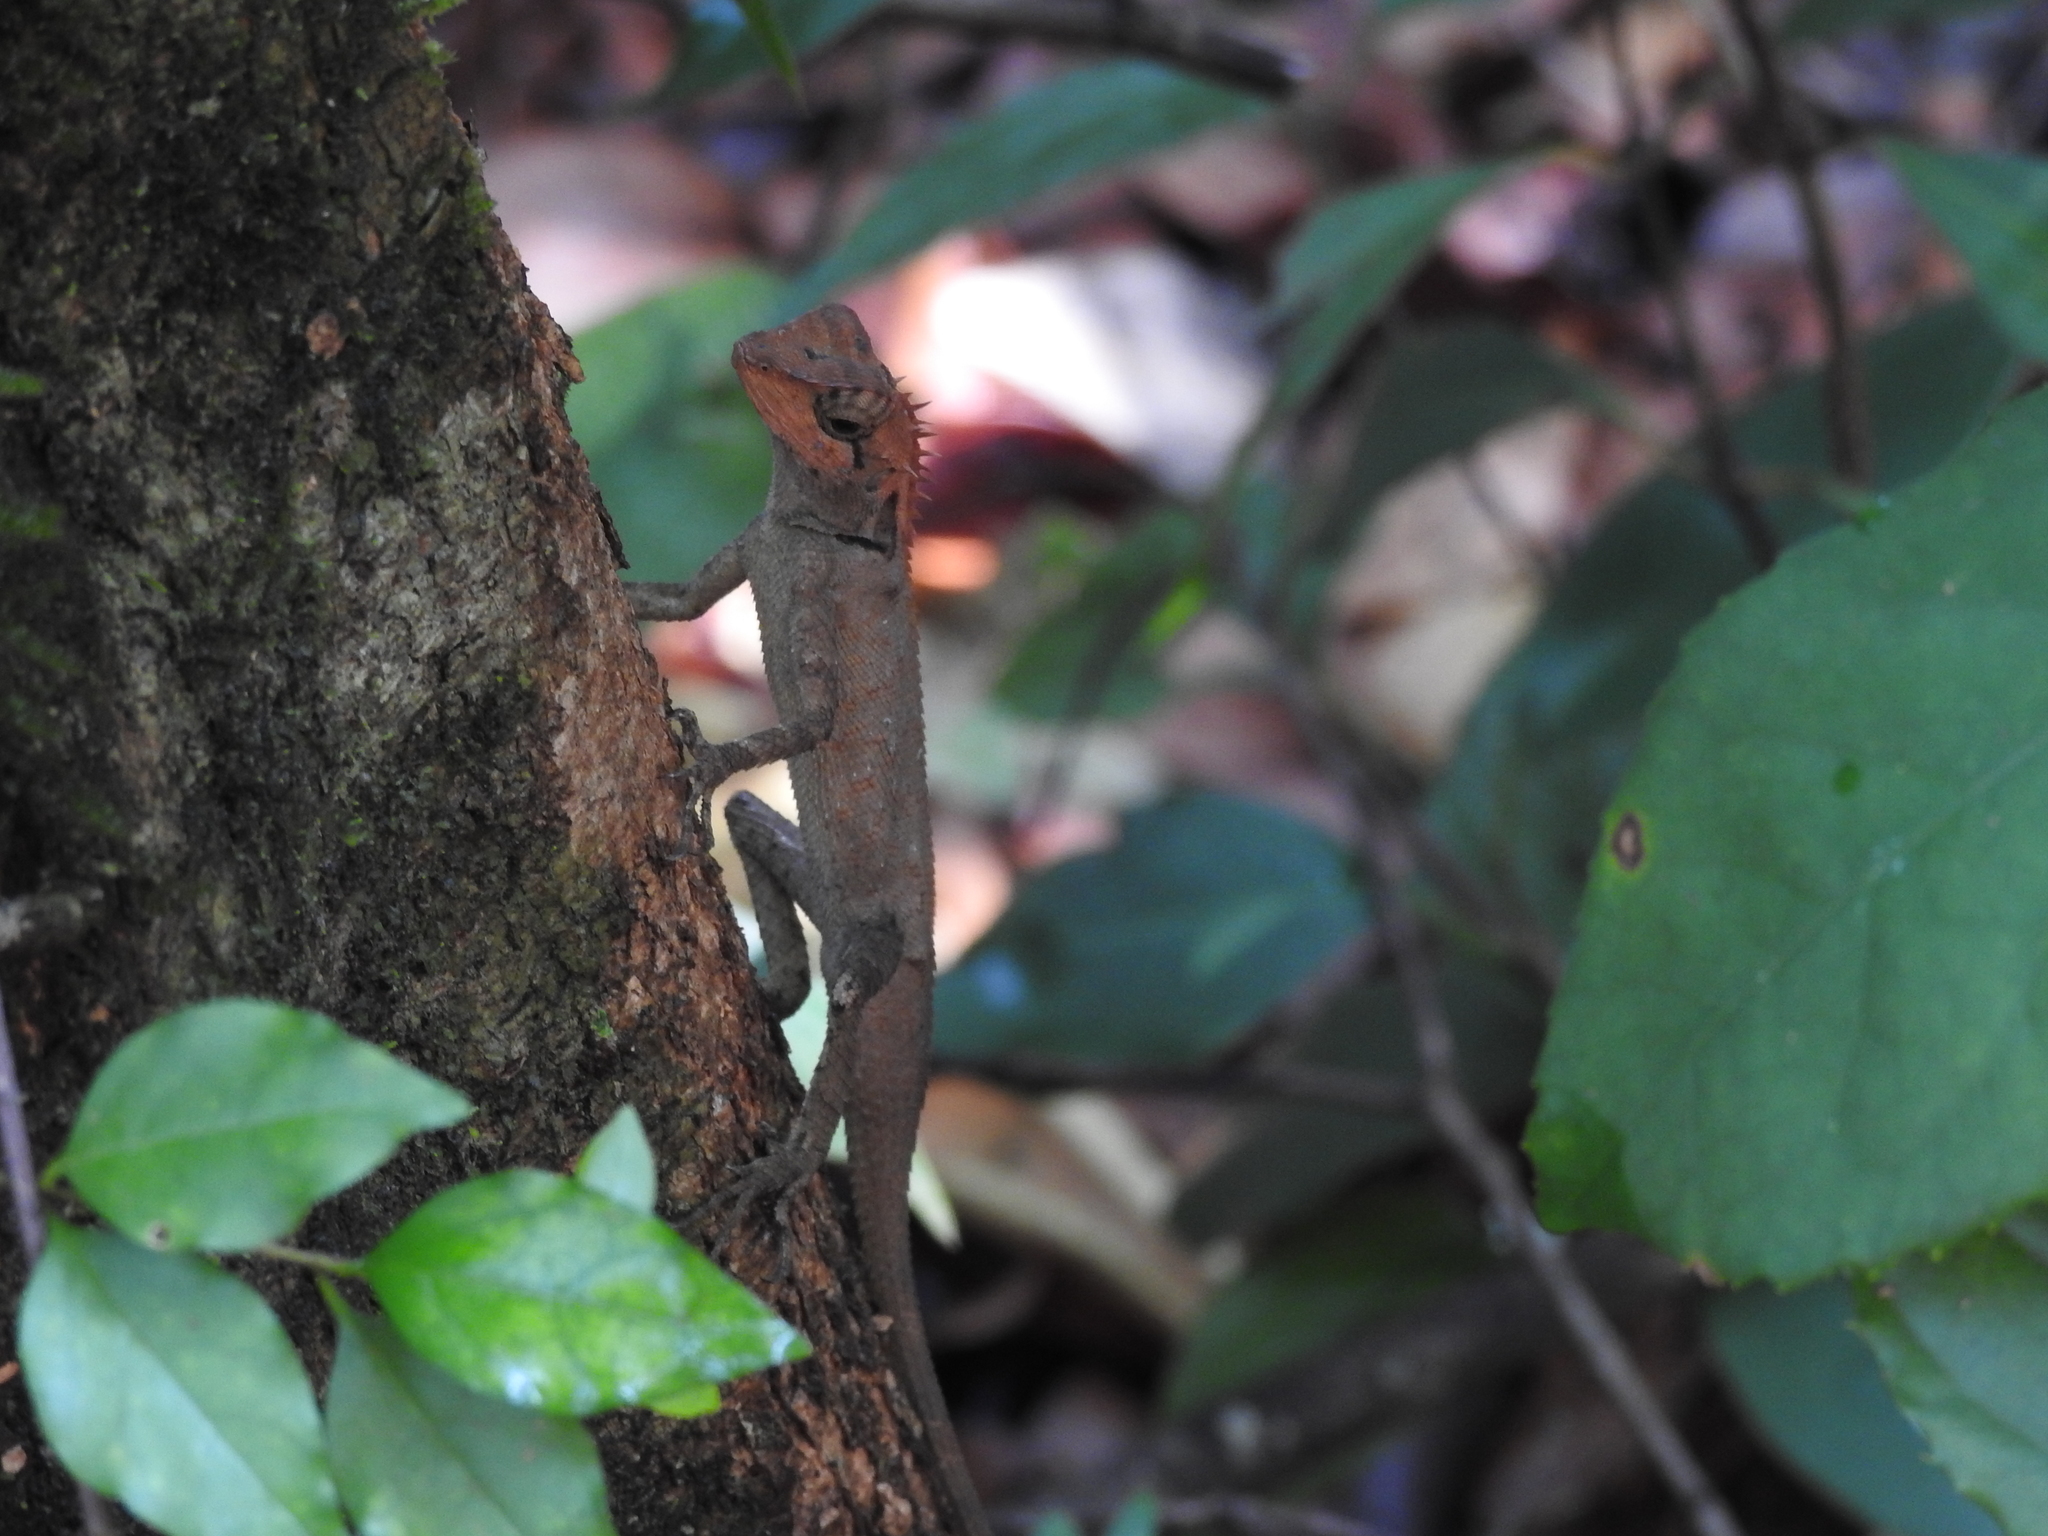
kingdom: Animalia
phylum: Chordata
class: Squamata
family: Agamidae
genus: Monilesaurus
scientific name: Monilesaurus rouxii
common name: Roux's forest lizard
